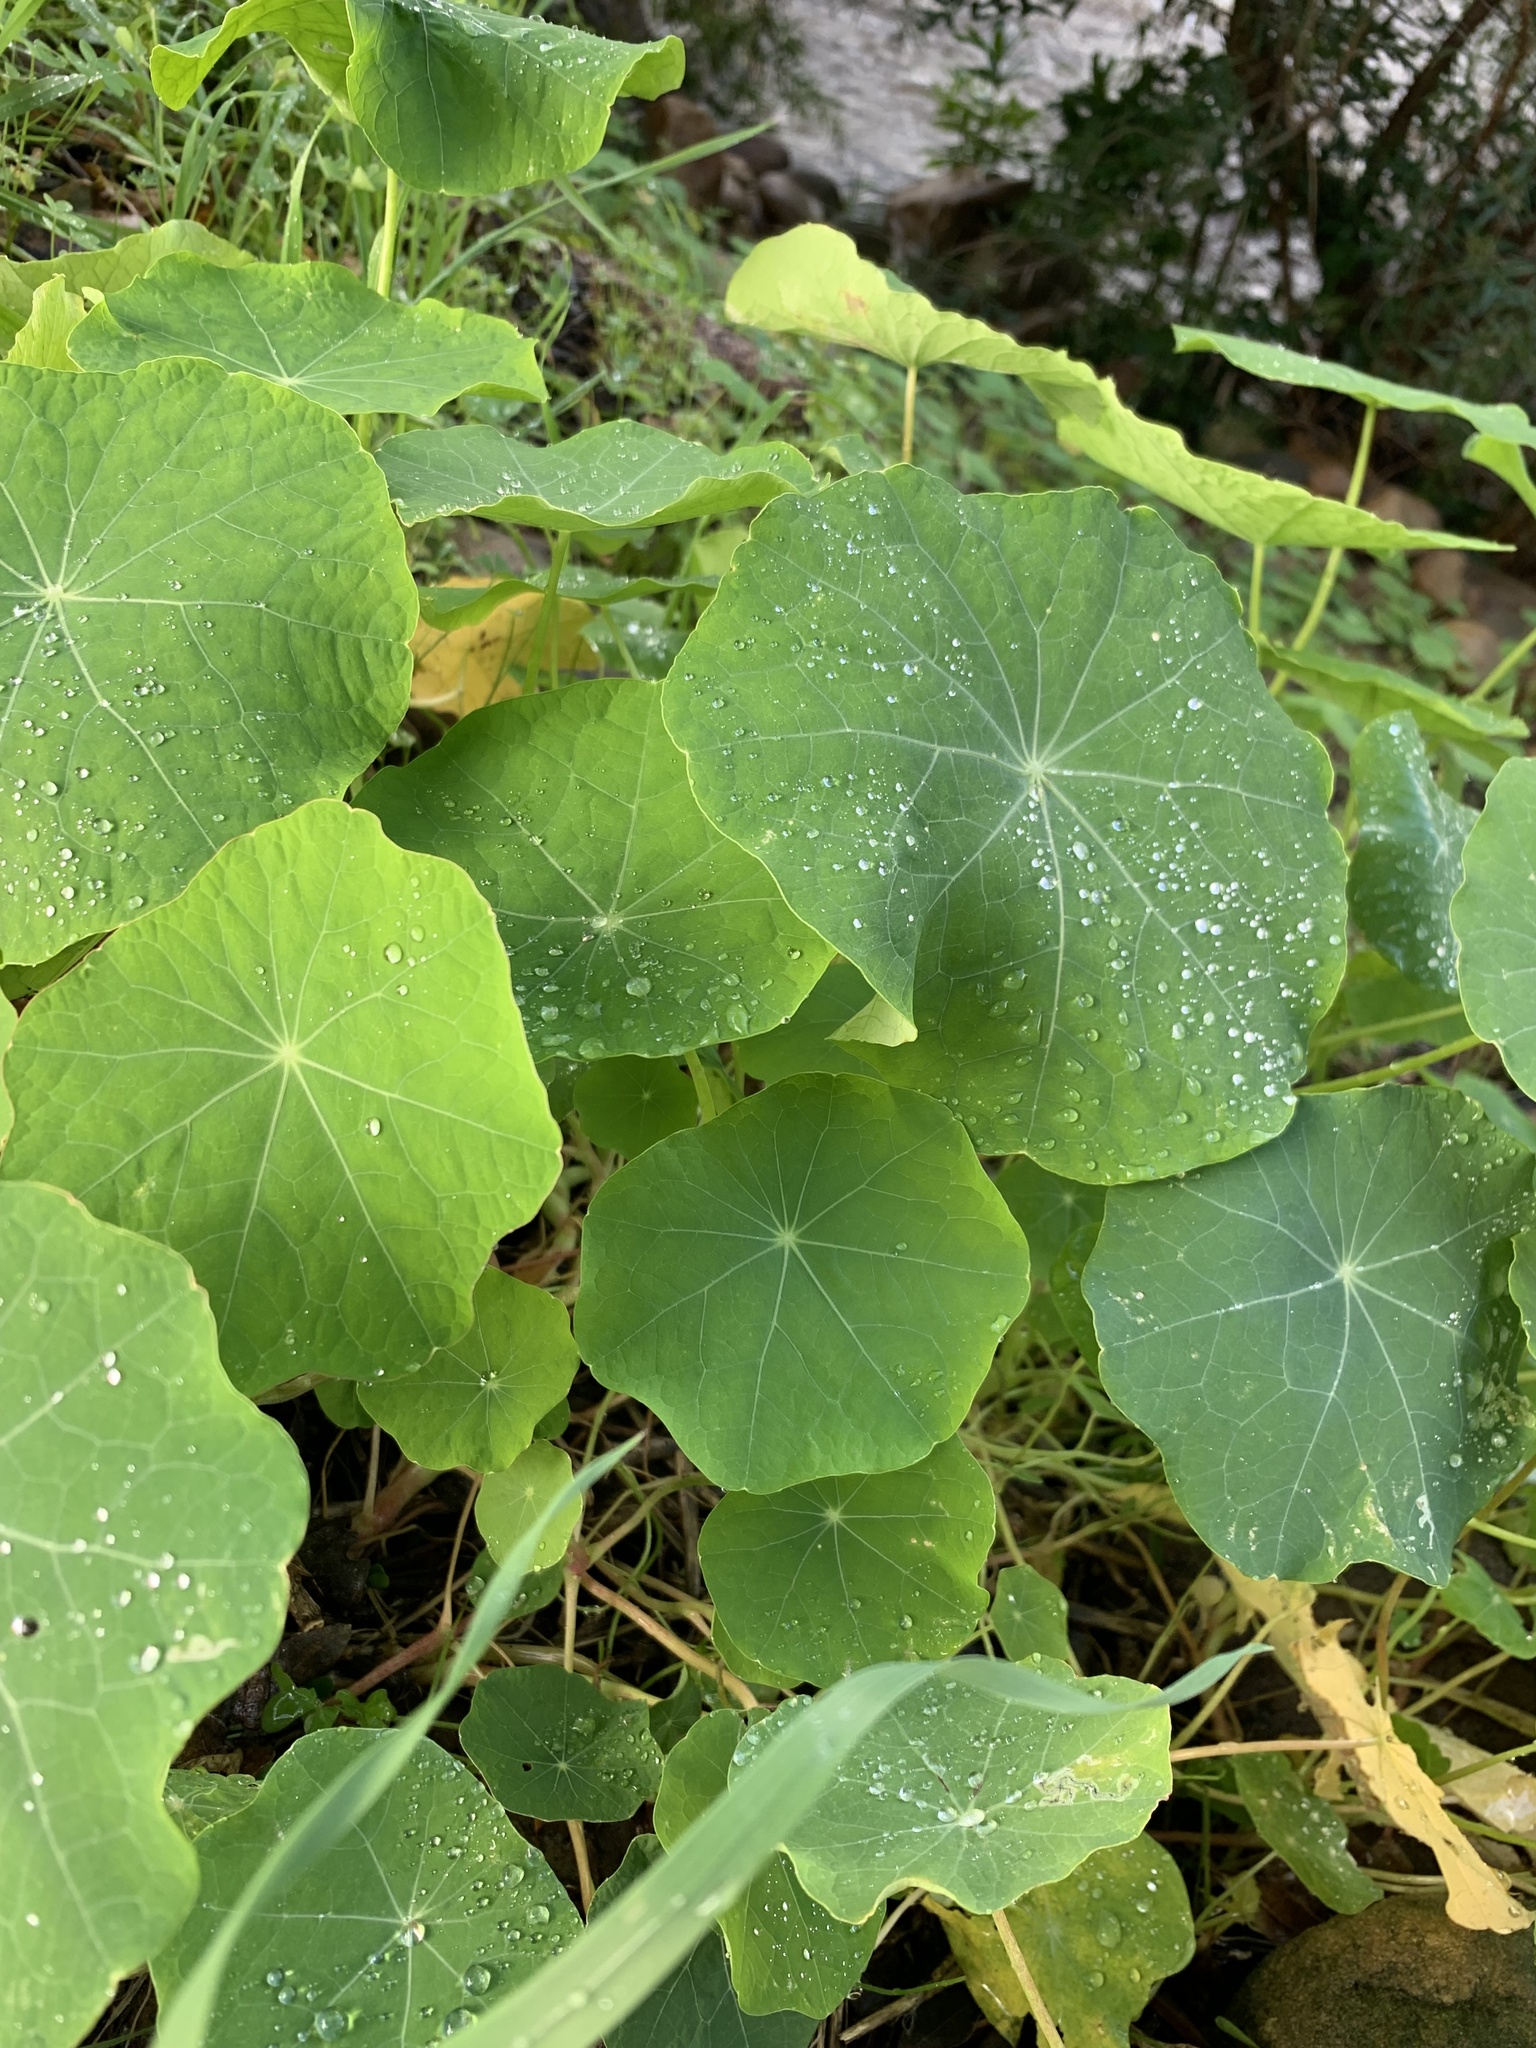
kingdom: Plantae
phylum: Tracheophyta
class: Magnoliopsida
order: Brassicales
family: Tropaeolaceae
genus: Tropaeolum
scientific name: Tropaeolum majus
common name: Nasturtium
